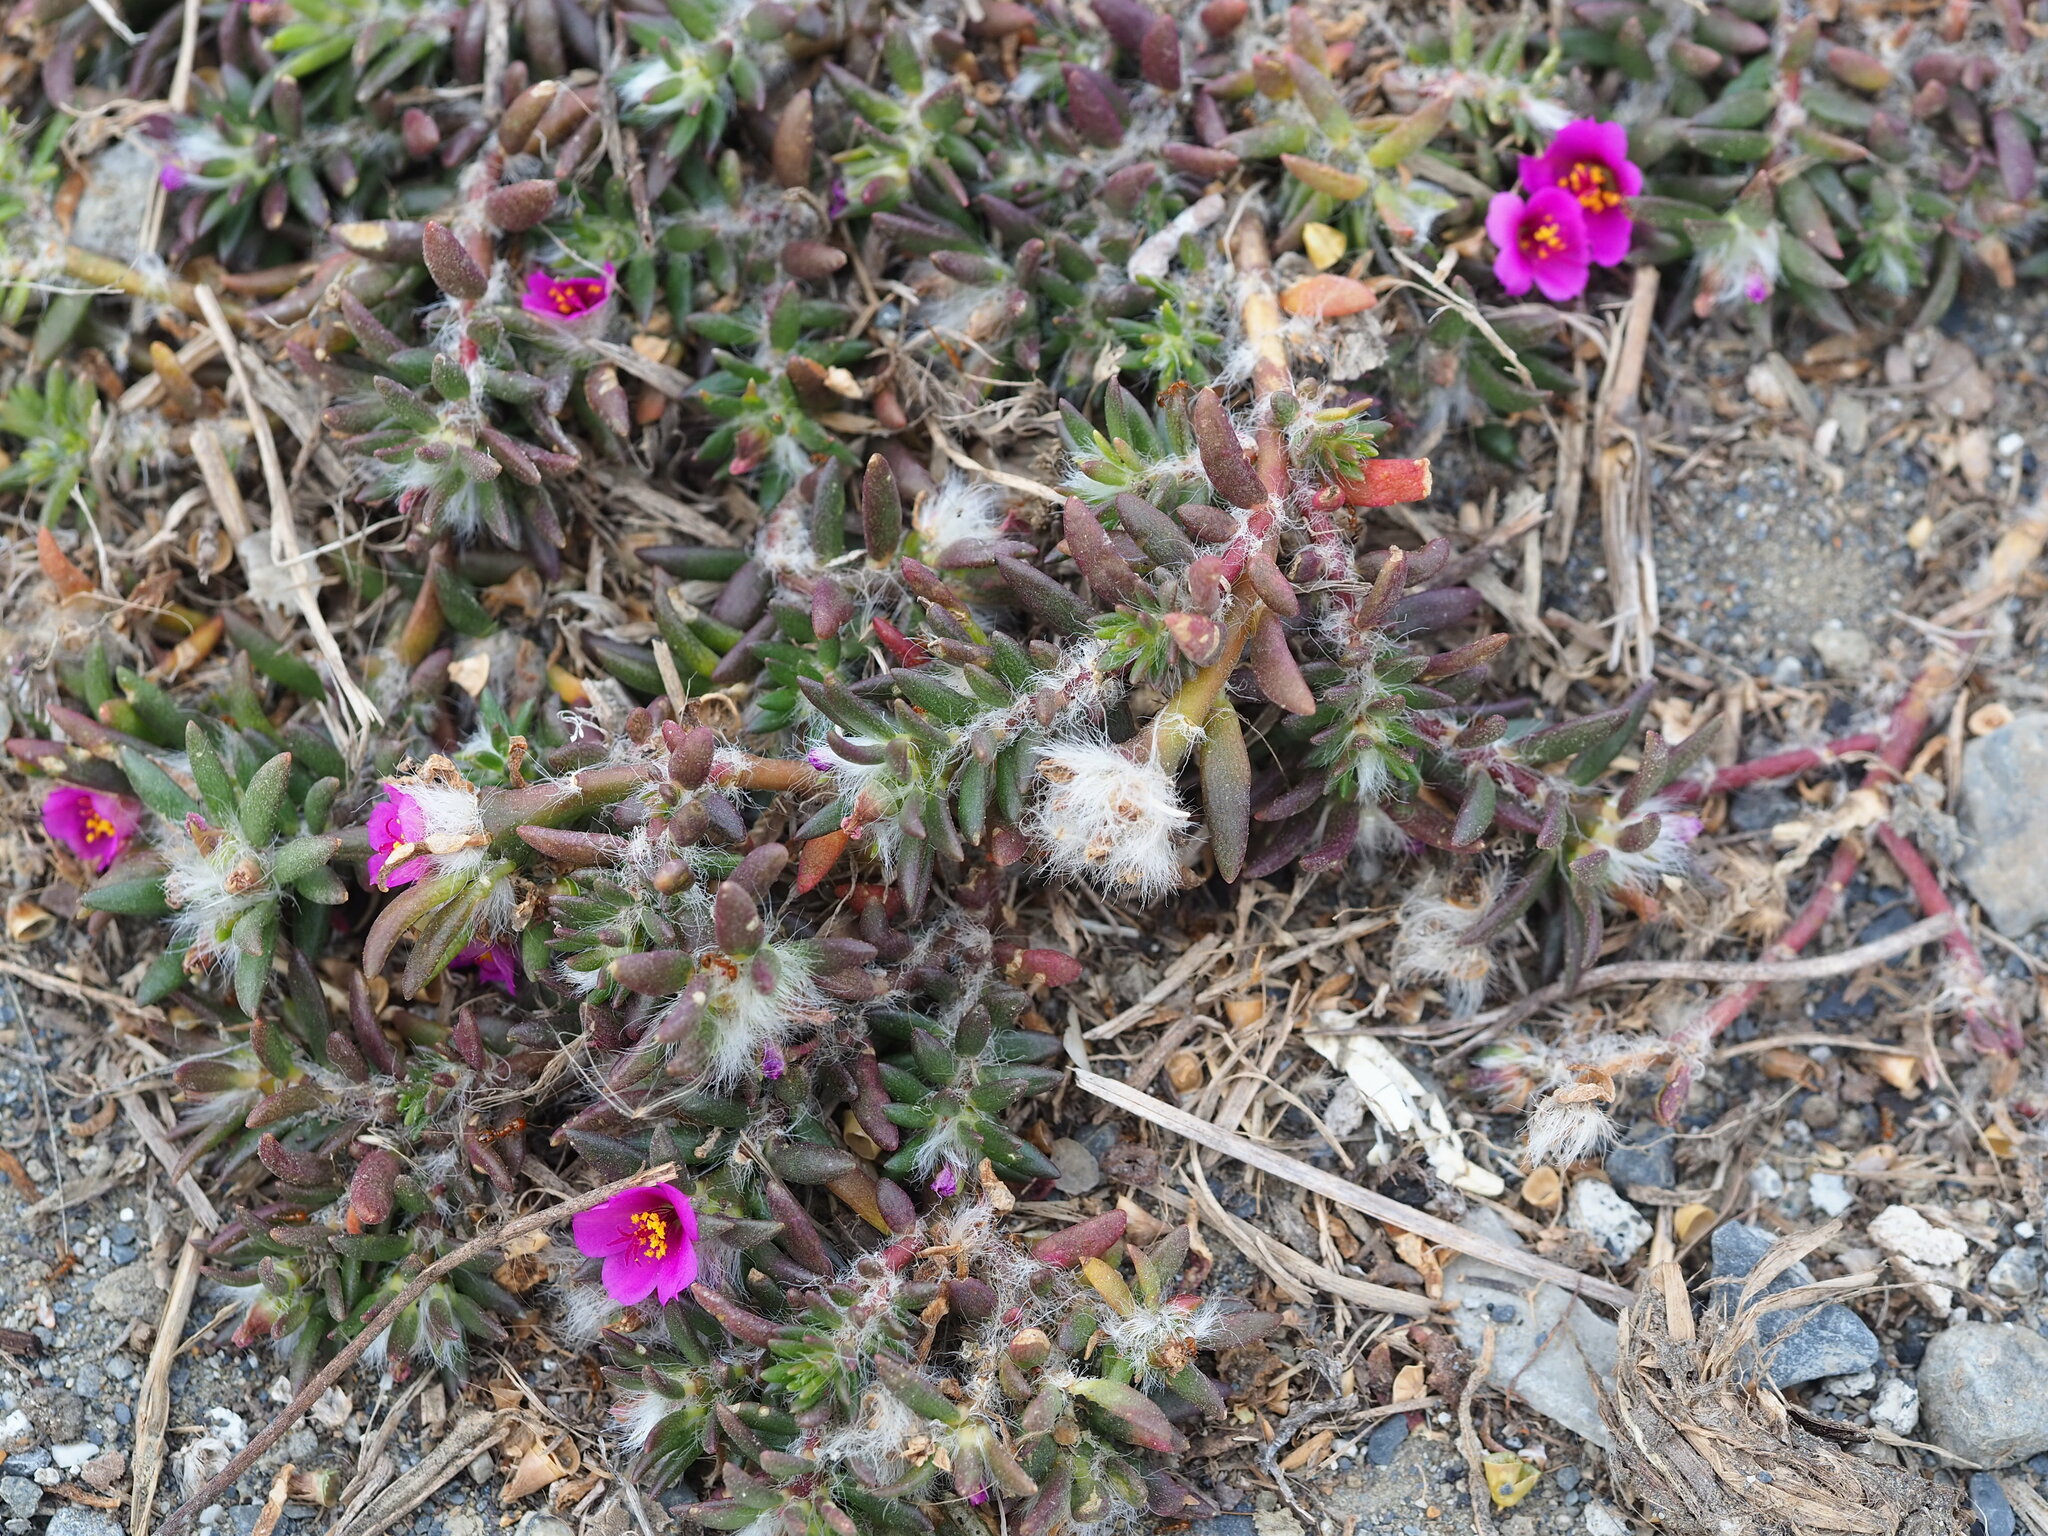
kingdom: Plantae
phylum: Tracheophyta
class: Magnoliopsida
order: Caryophyllales
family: Portulacaceae
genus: Portulaca
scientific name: Portulaca pilosa
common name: Kiss me quick
